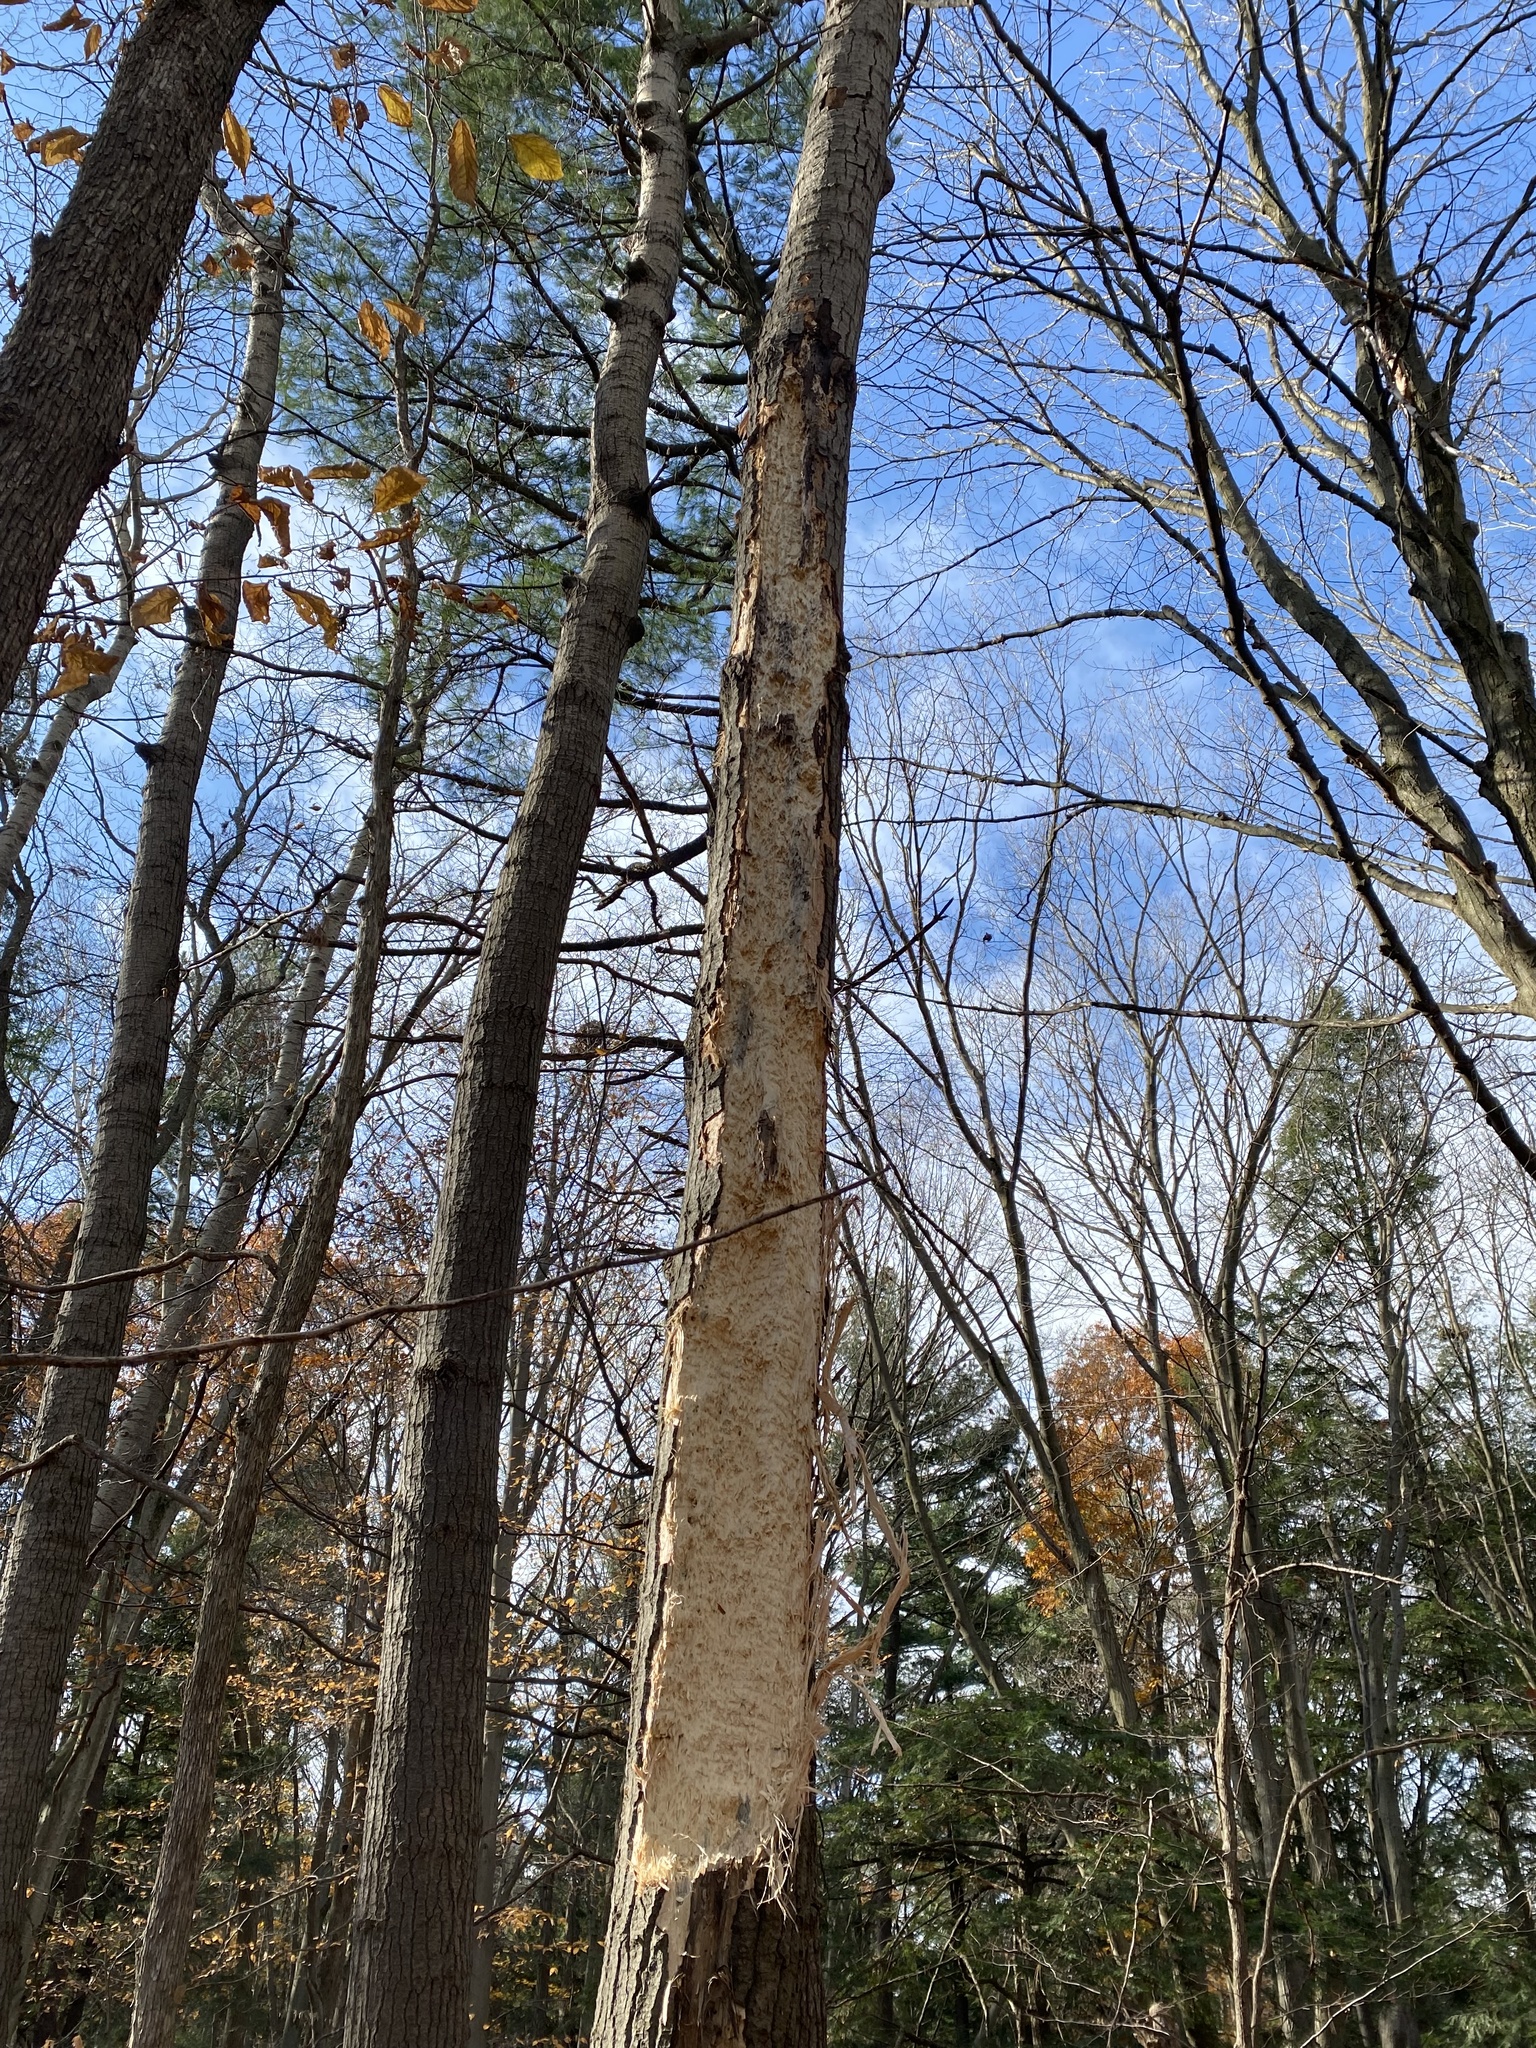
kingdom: Animalia
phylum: Chordata
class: Aves
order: Piciformes
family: Picidae
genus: Dryocopus
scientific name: Dryocopus pileatus
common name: Pileated woodpecker
